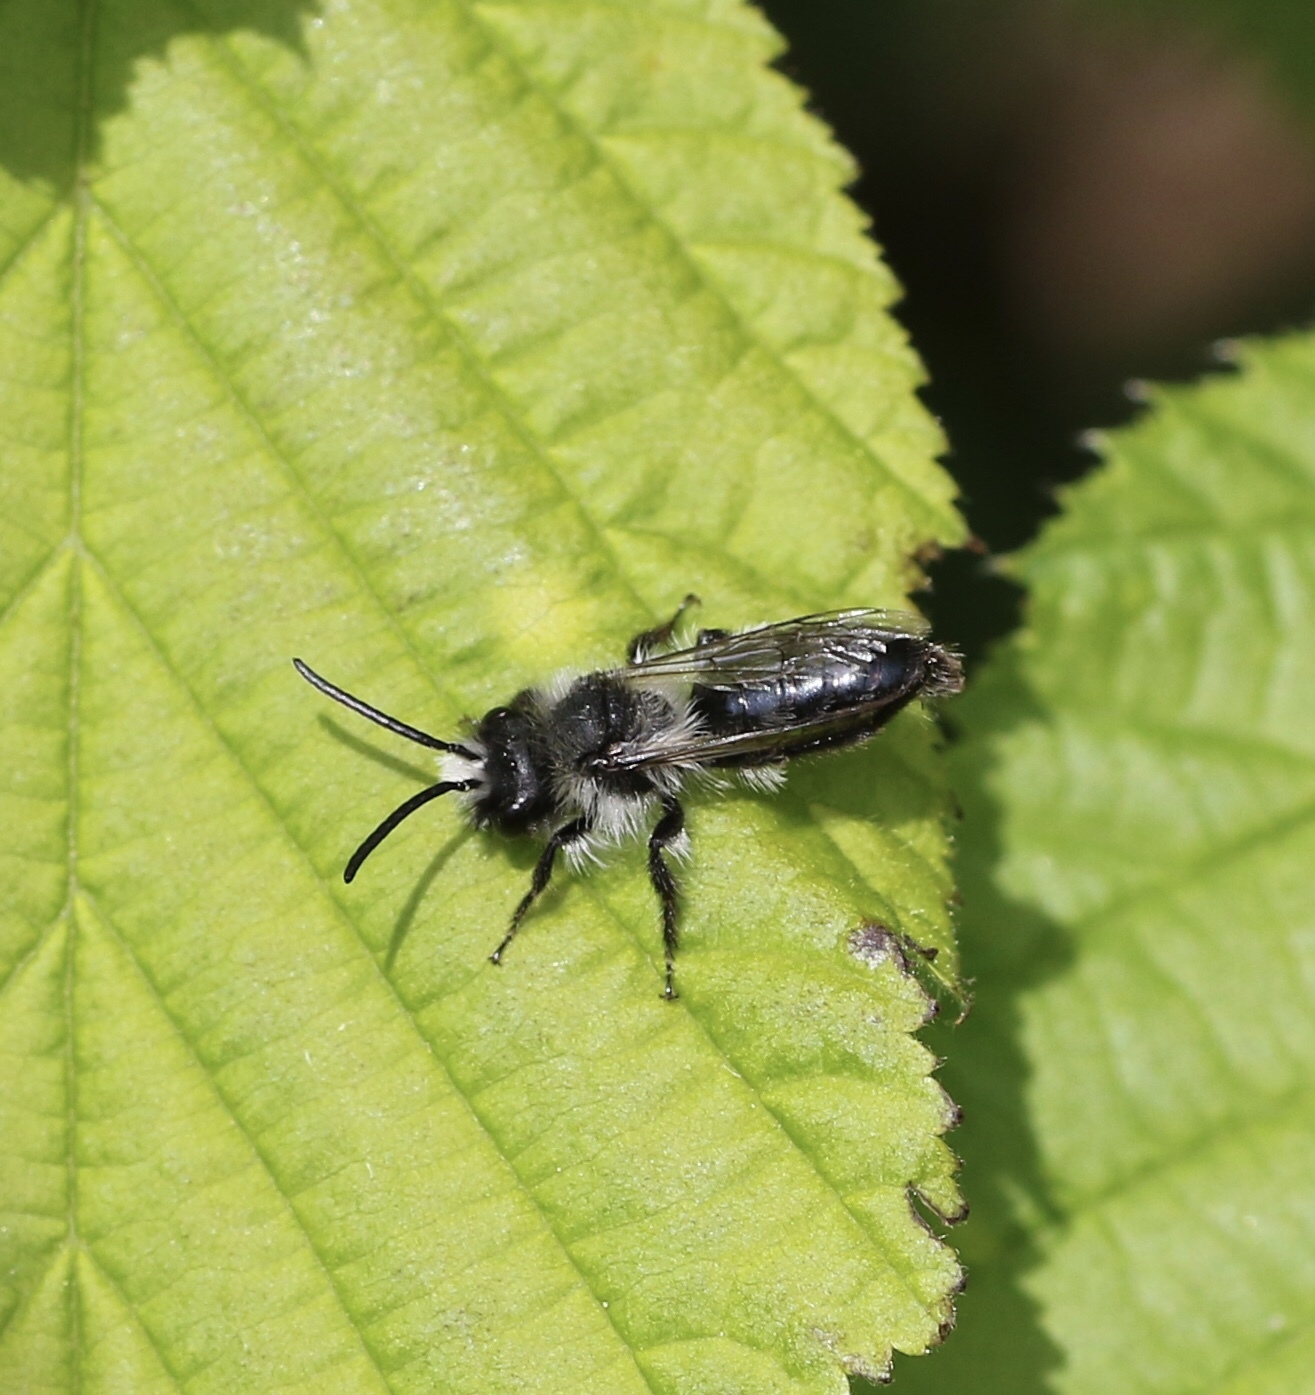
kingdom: Animalia
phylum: Arthropoda
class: Insecta
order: Hymenoptera
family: Andrenidae
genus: Andrena
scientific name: Andrena cineraria
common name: Ashy mining bee
